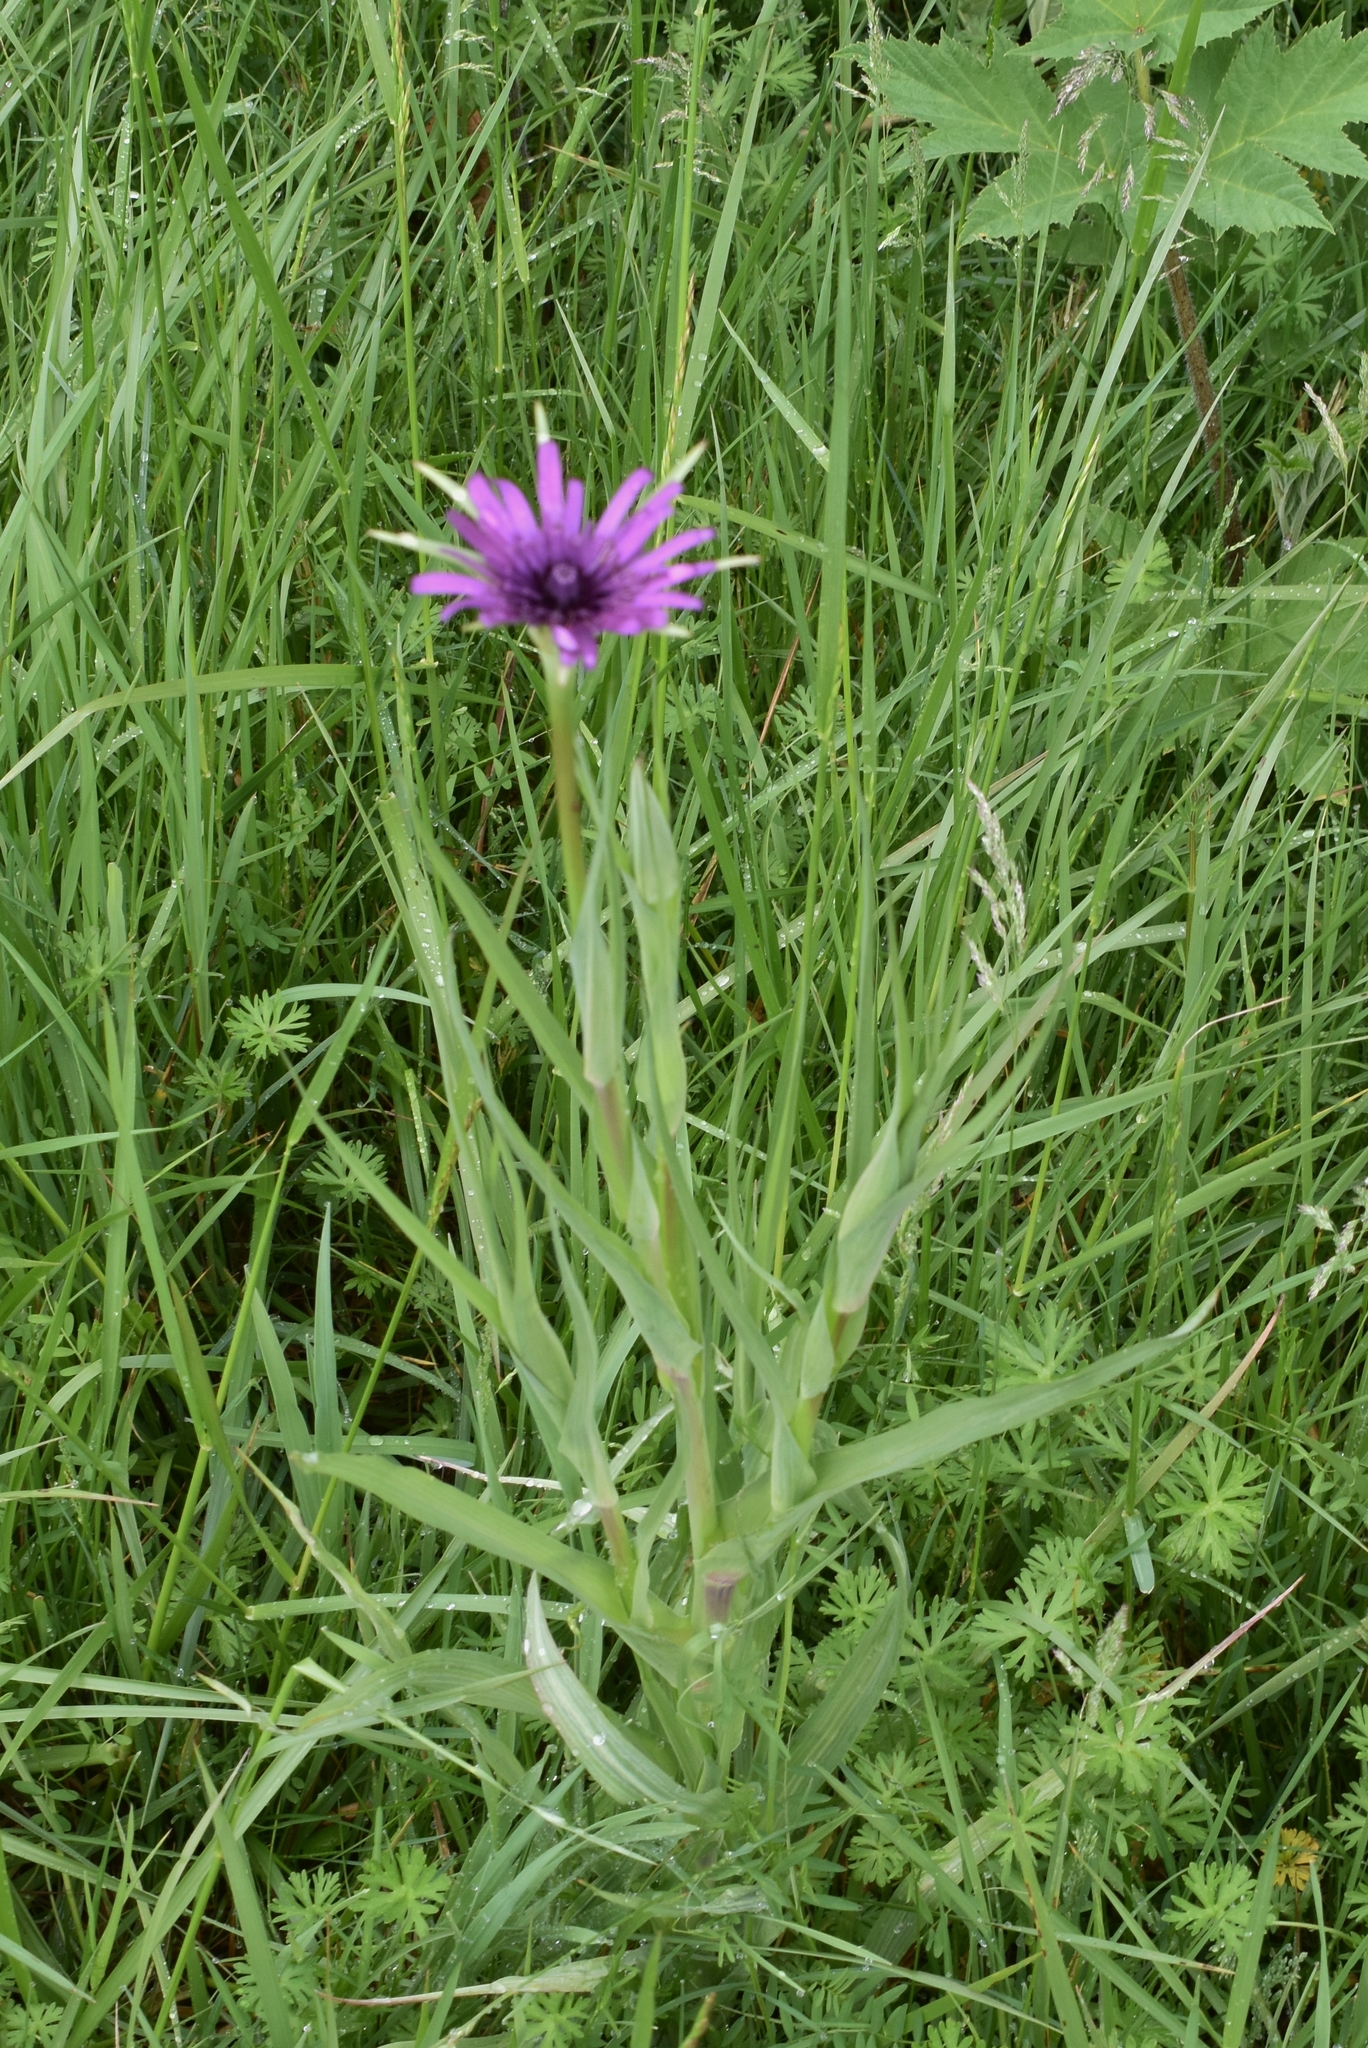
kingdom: Plantae
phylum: Tracheophyta
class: Magnoliopsida
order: Asterales
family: Asteraceae
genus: Tragopogon
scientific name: Tragopogon porrifolius
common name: Salsify
